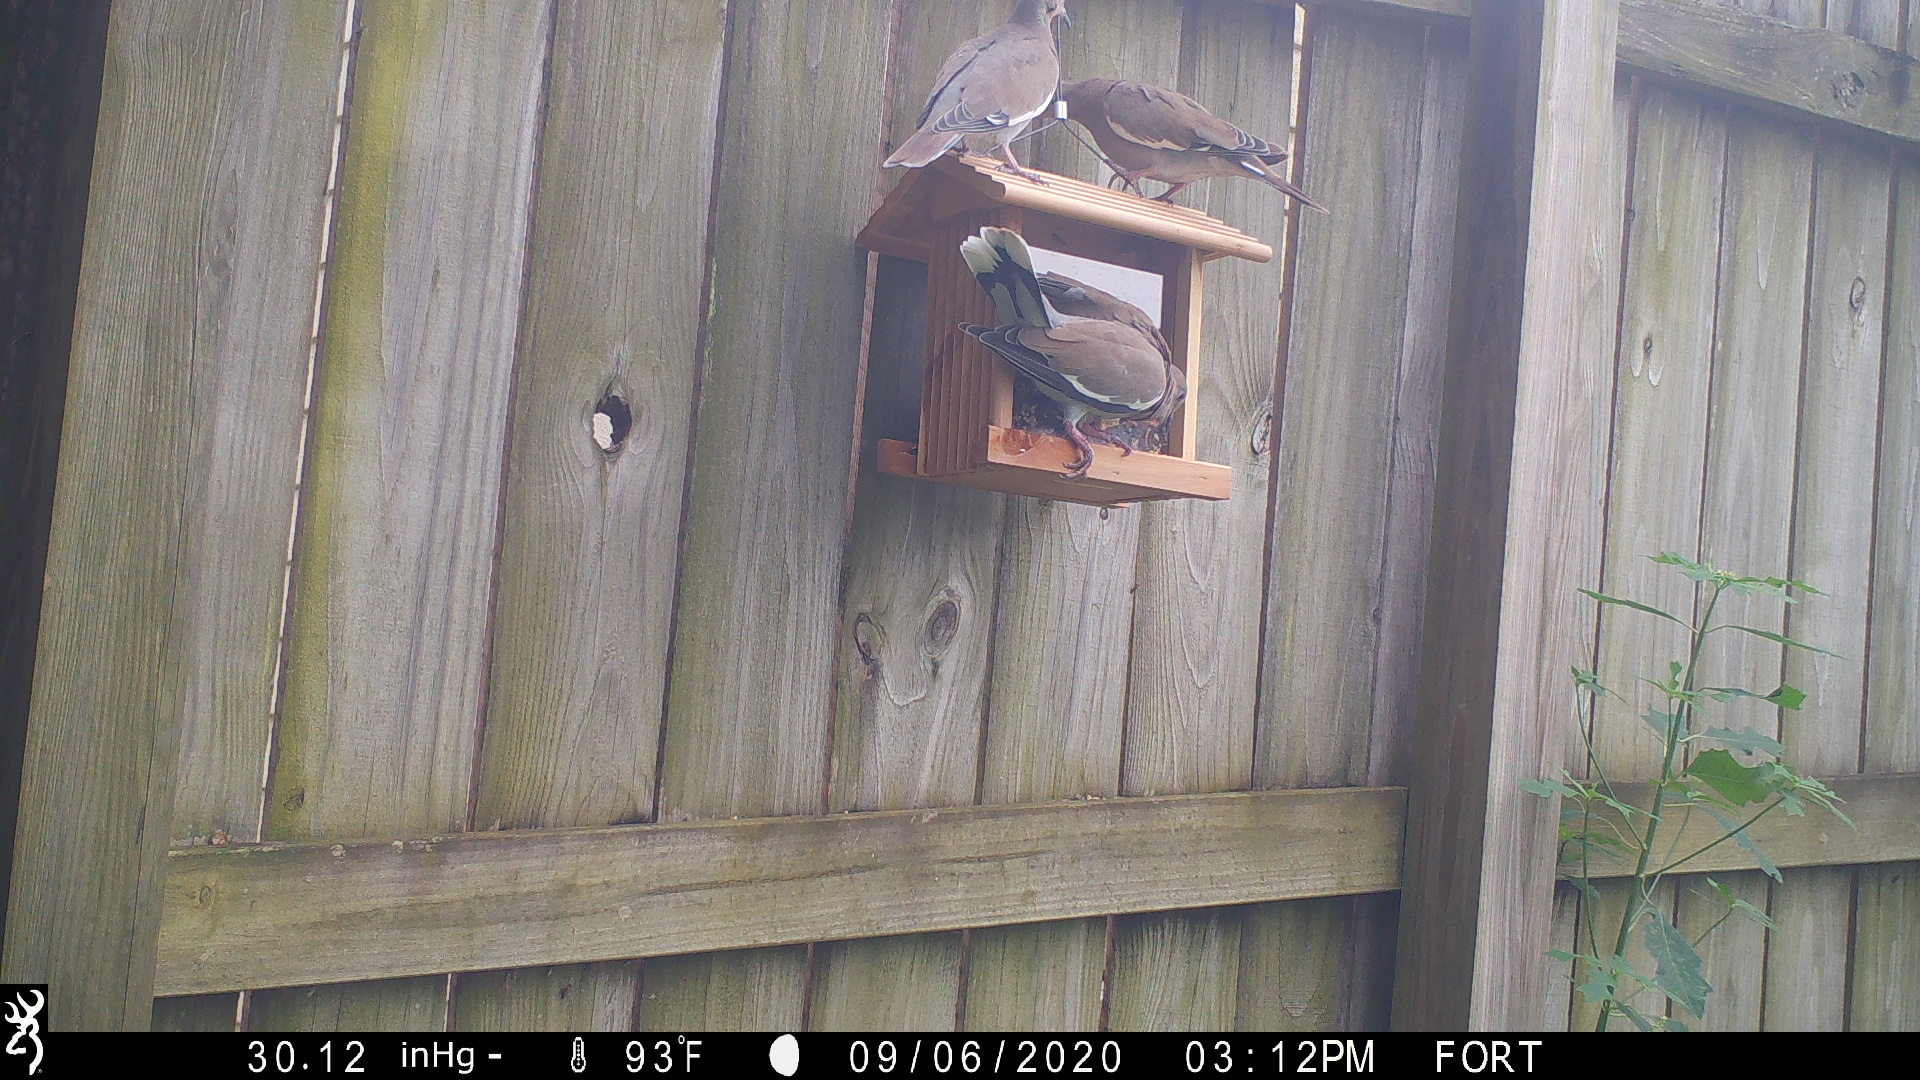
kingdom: Animalia
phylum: Chordata
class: Aves
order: Columbiformes
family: Columbidae
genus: Zenaida
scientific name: Zenaida asiatica
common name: White-winged dove
